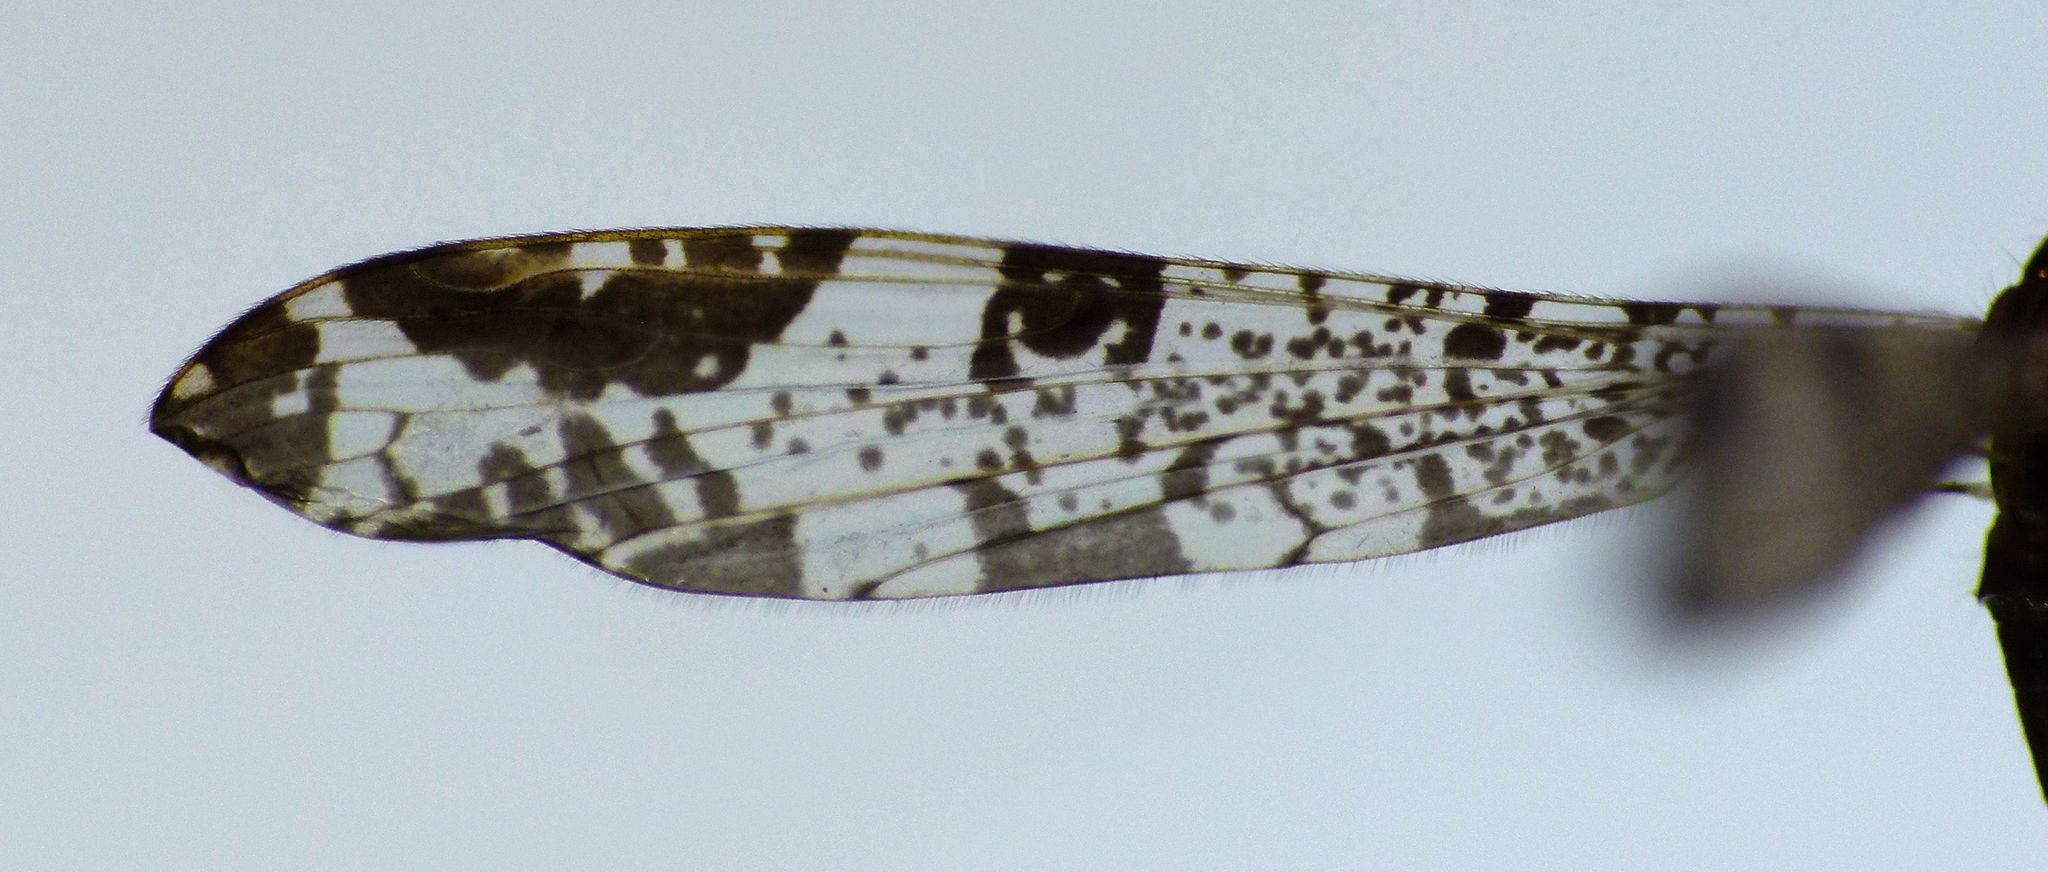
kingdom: Animalia
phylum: Arthropoda
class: Insecta
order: Diptera
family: Limoniidae
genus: Discobola
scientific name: Discobola venustula
